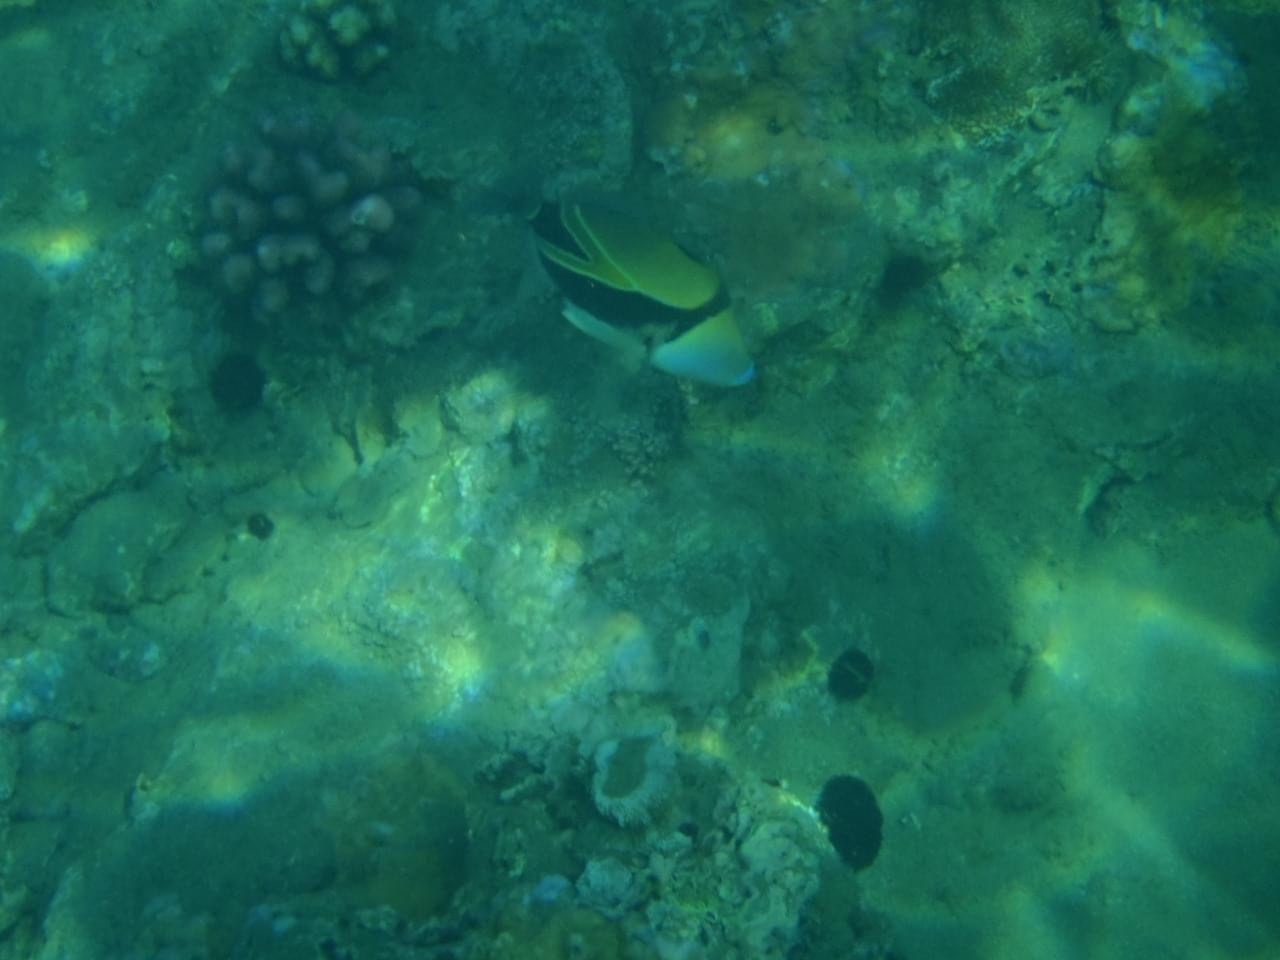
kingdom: Animalia
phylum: Chordata
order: Tetraodontiformes
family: Balistidae
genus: Rhinecanthus
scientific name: Rhinecanthus rectangulus
